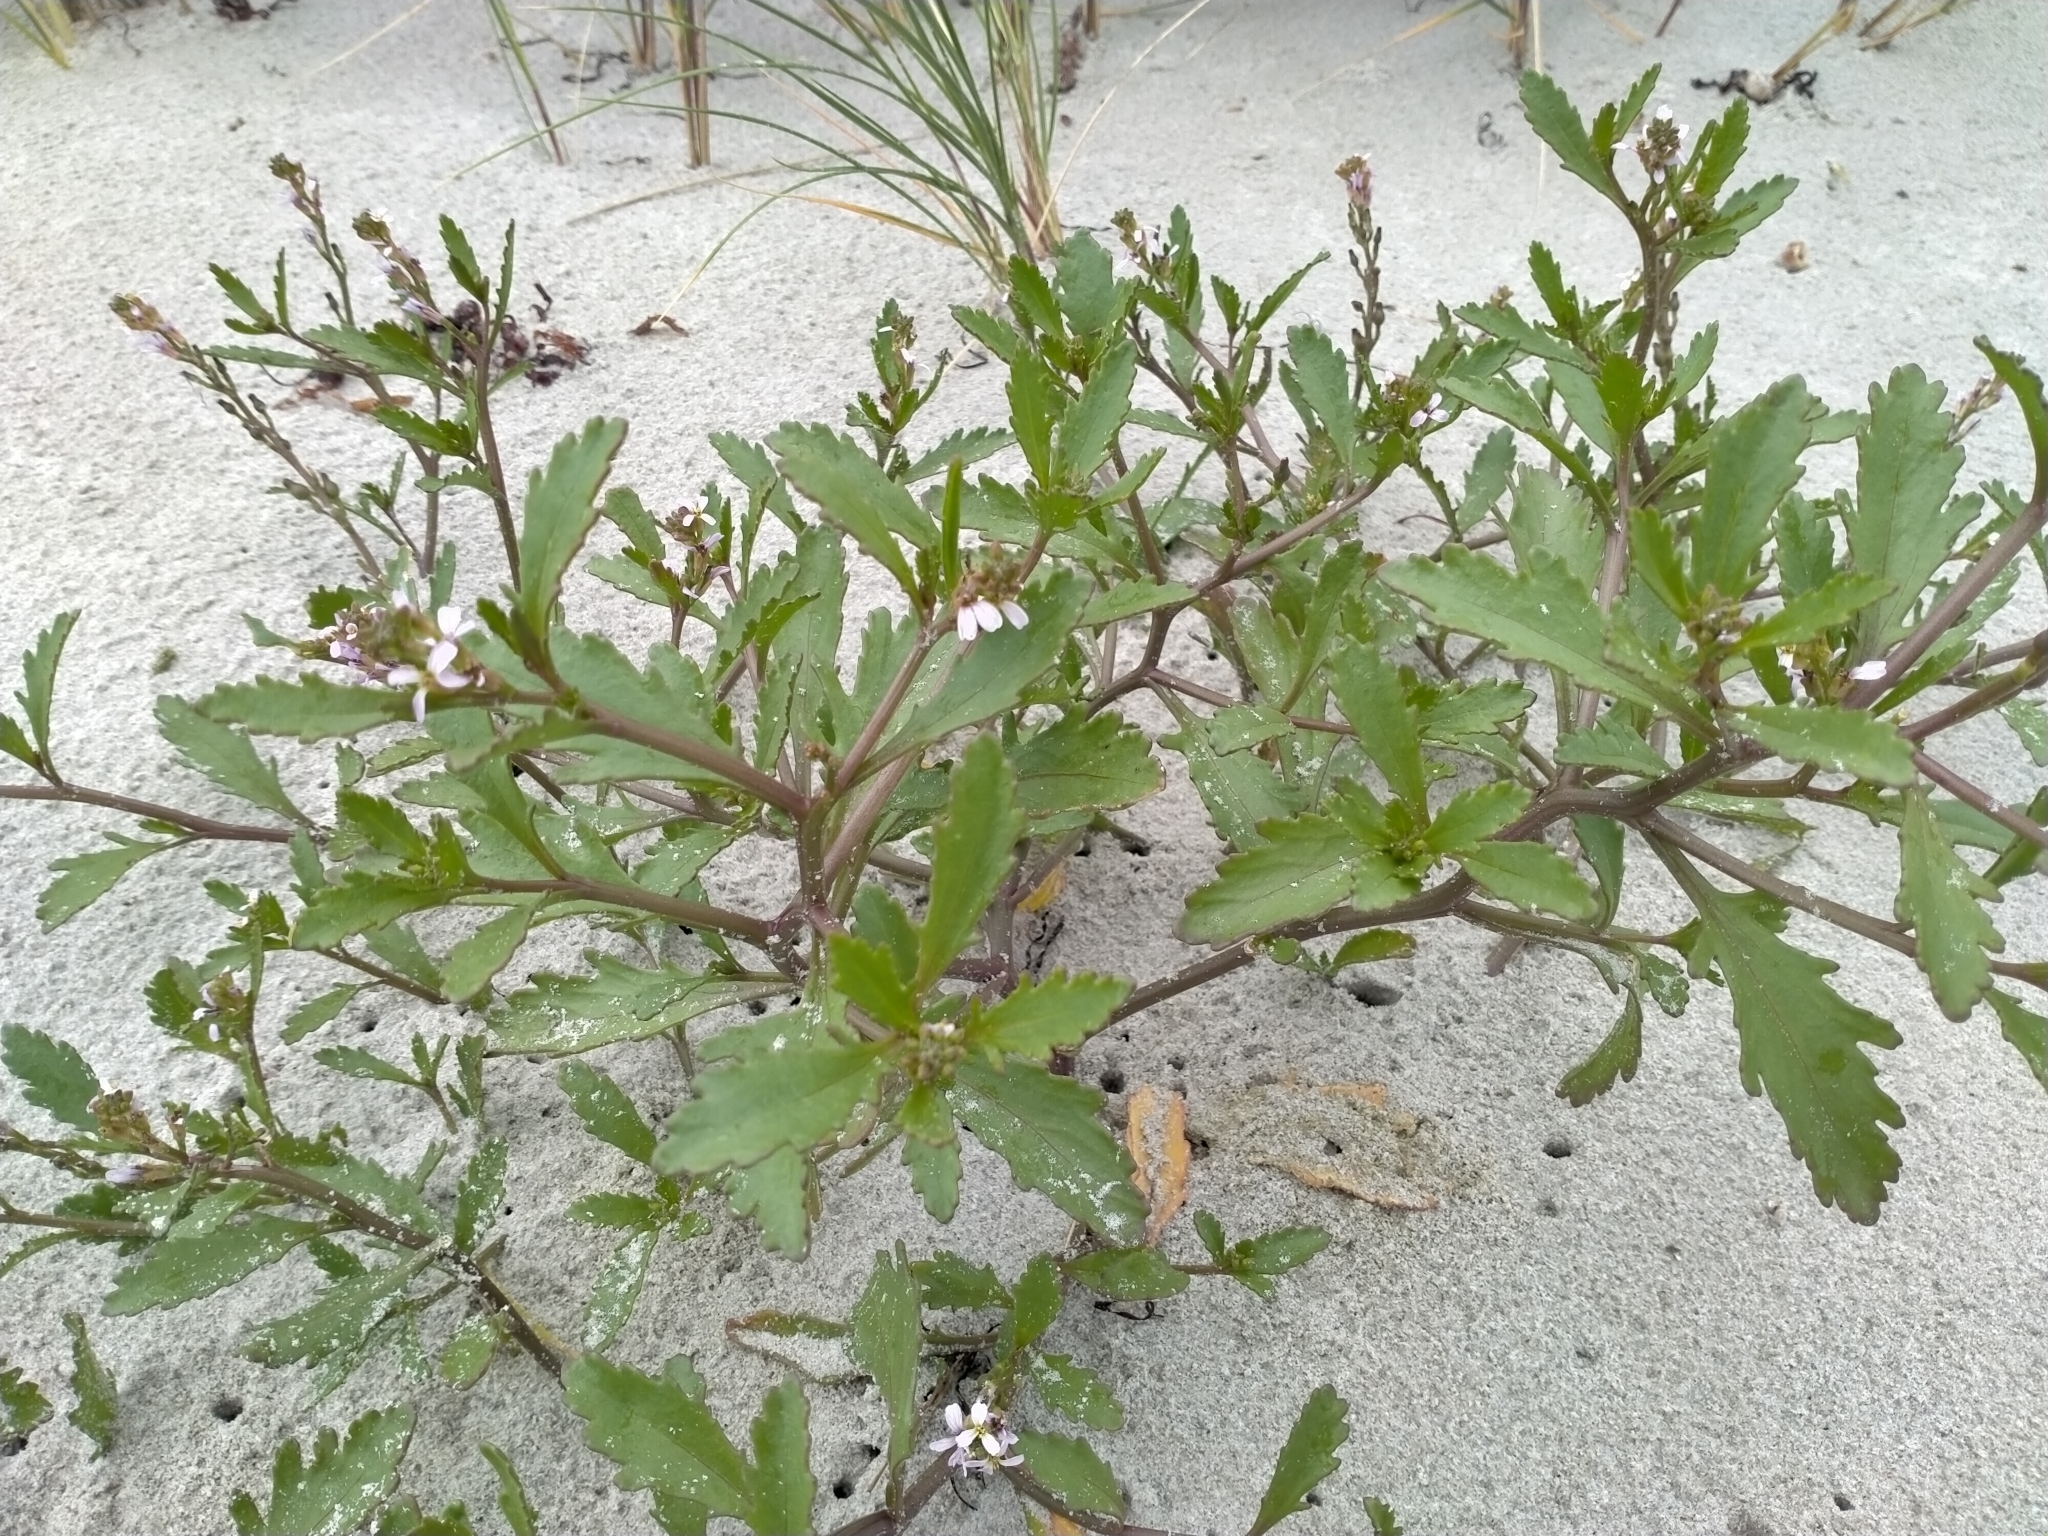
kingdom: Plantae
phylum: Tracheophyta
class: Magnoliopsida
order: Brassicales
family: Brassicaceae
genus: Cakile
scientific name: Cakile edentula
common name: American sea rocket
